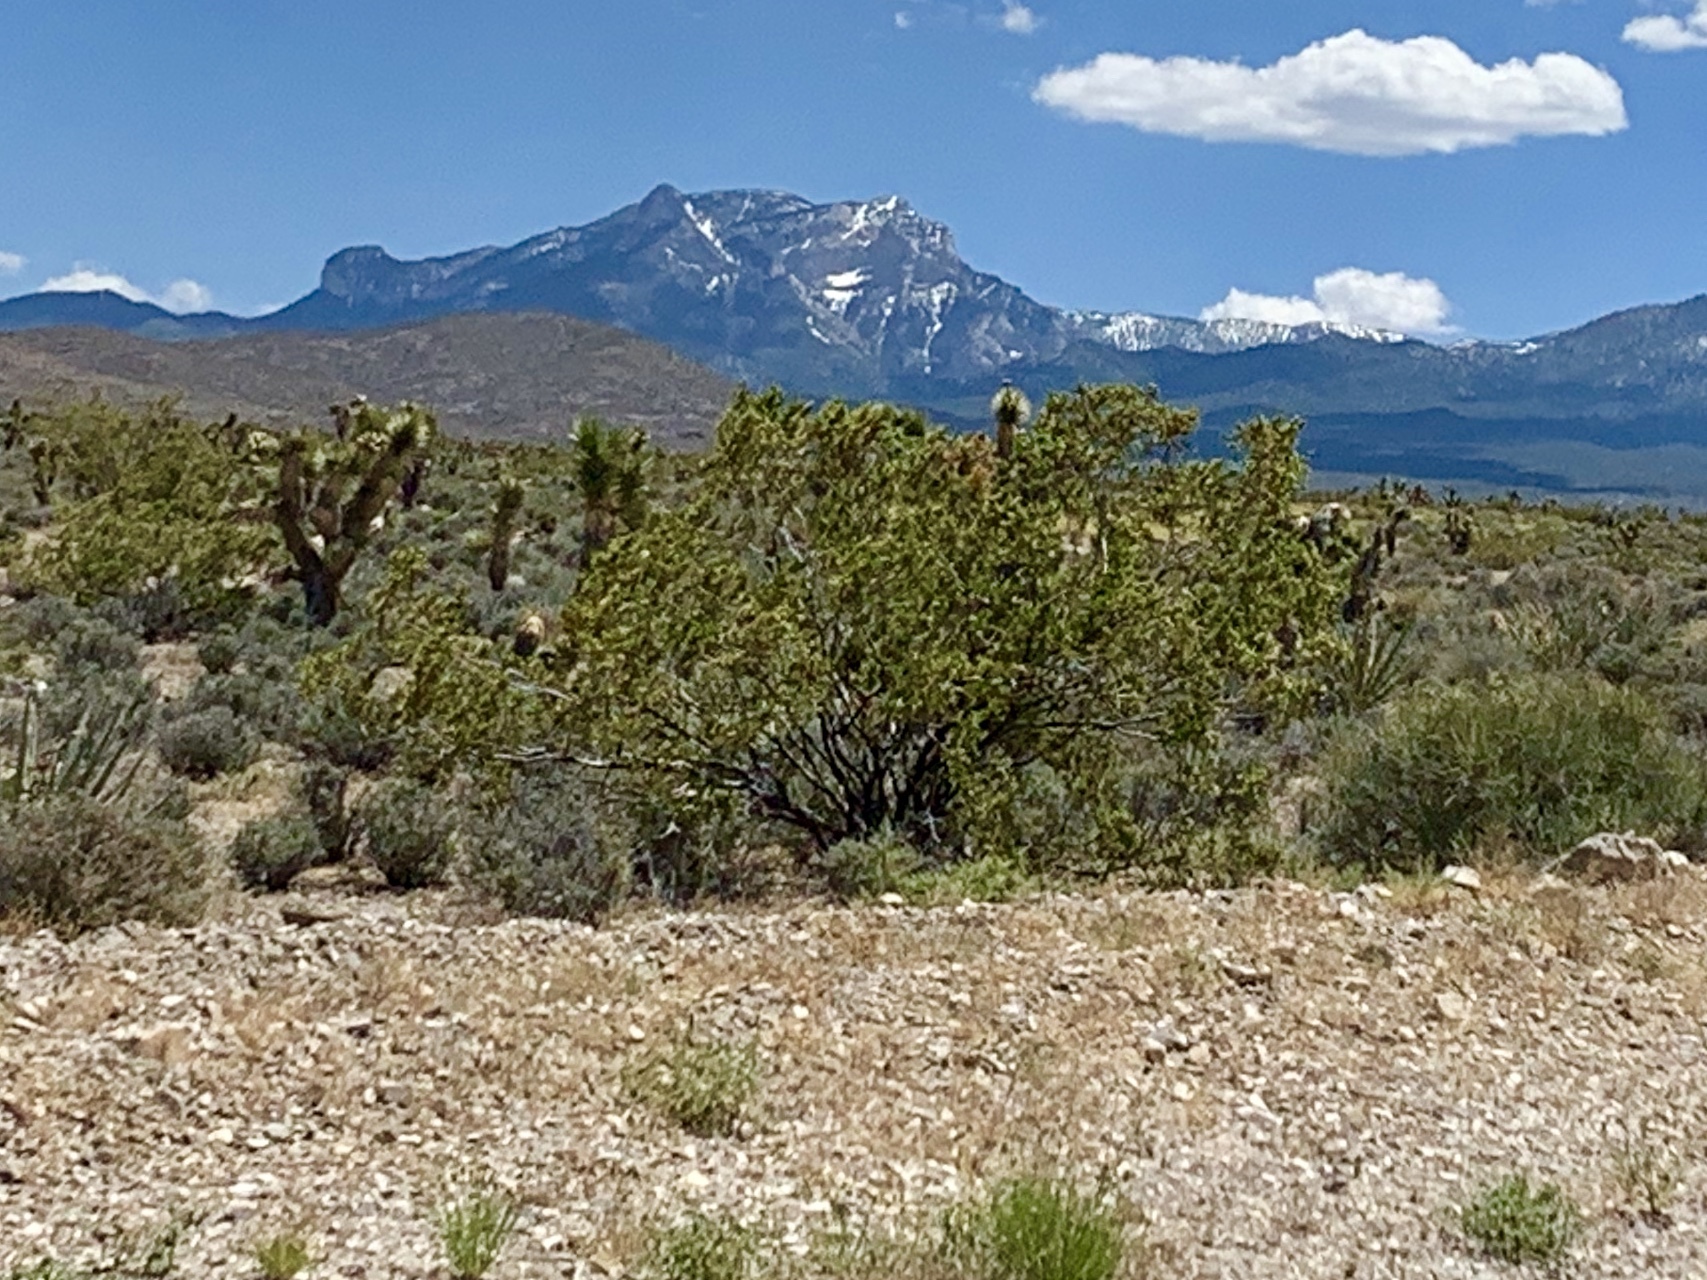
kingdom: Plantae
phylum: Tracheophyta
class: Magnoliopsida
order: Zygophyllales
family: Zygophyllaceae
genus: Larrea
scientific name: Larrea tridentata
